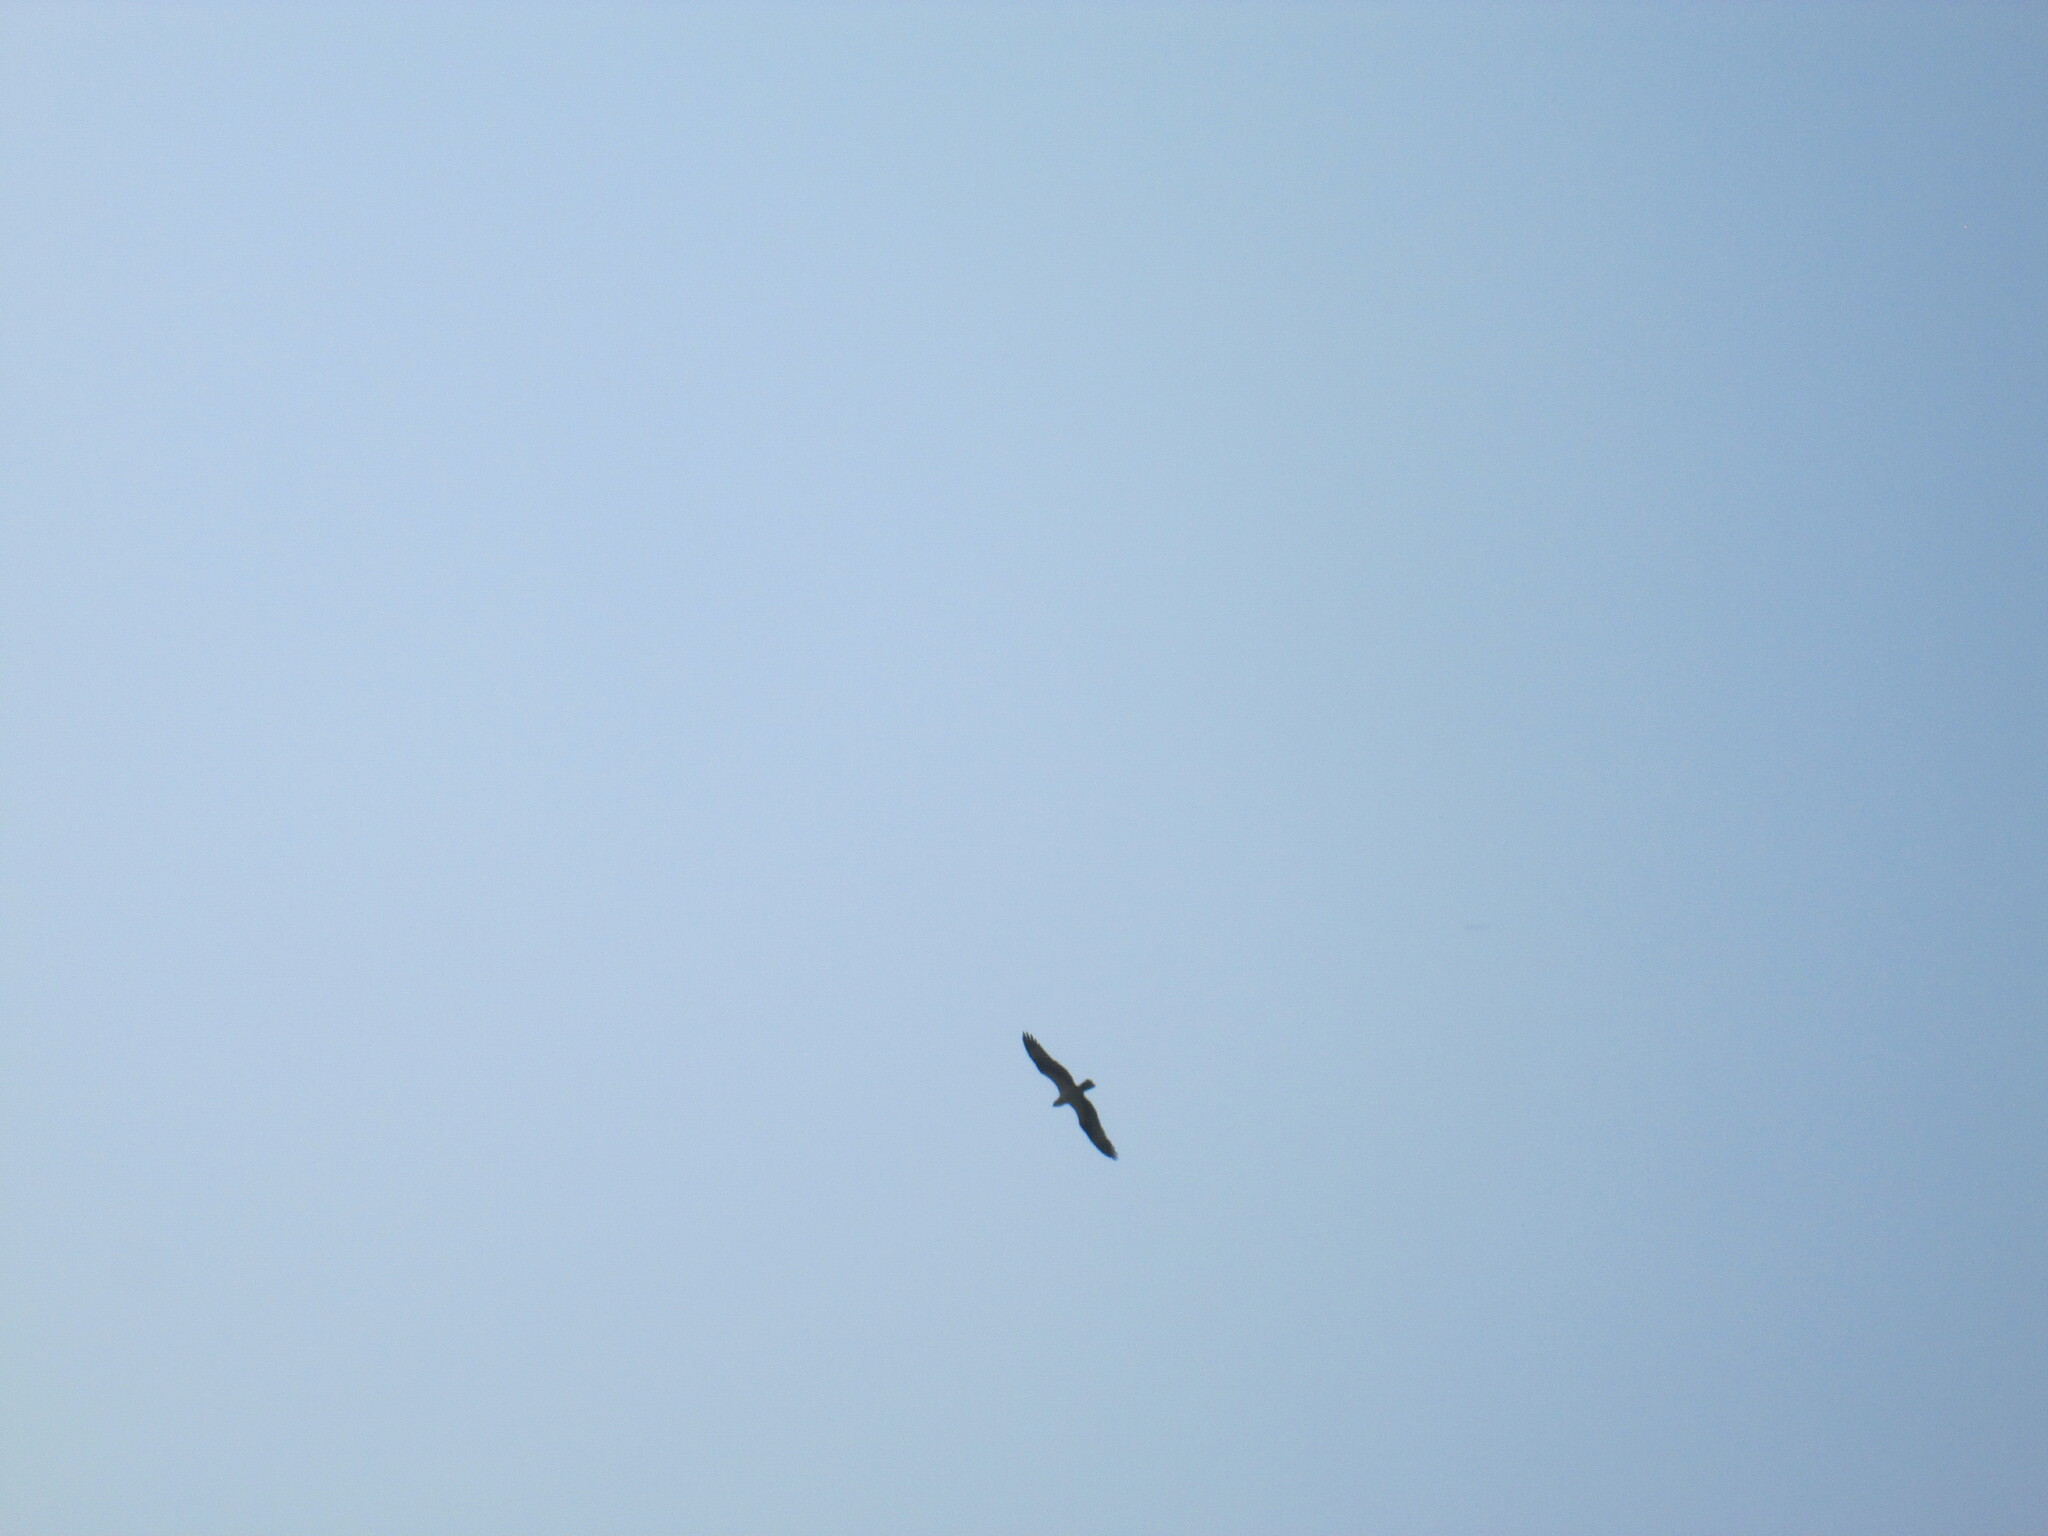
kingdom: Animalia
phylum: Chordata
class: Aves
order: Accipitriformes
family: Pandionidae
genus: Pandion
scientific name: Pandion haliaetus
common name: Osprey
